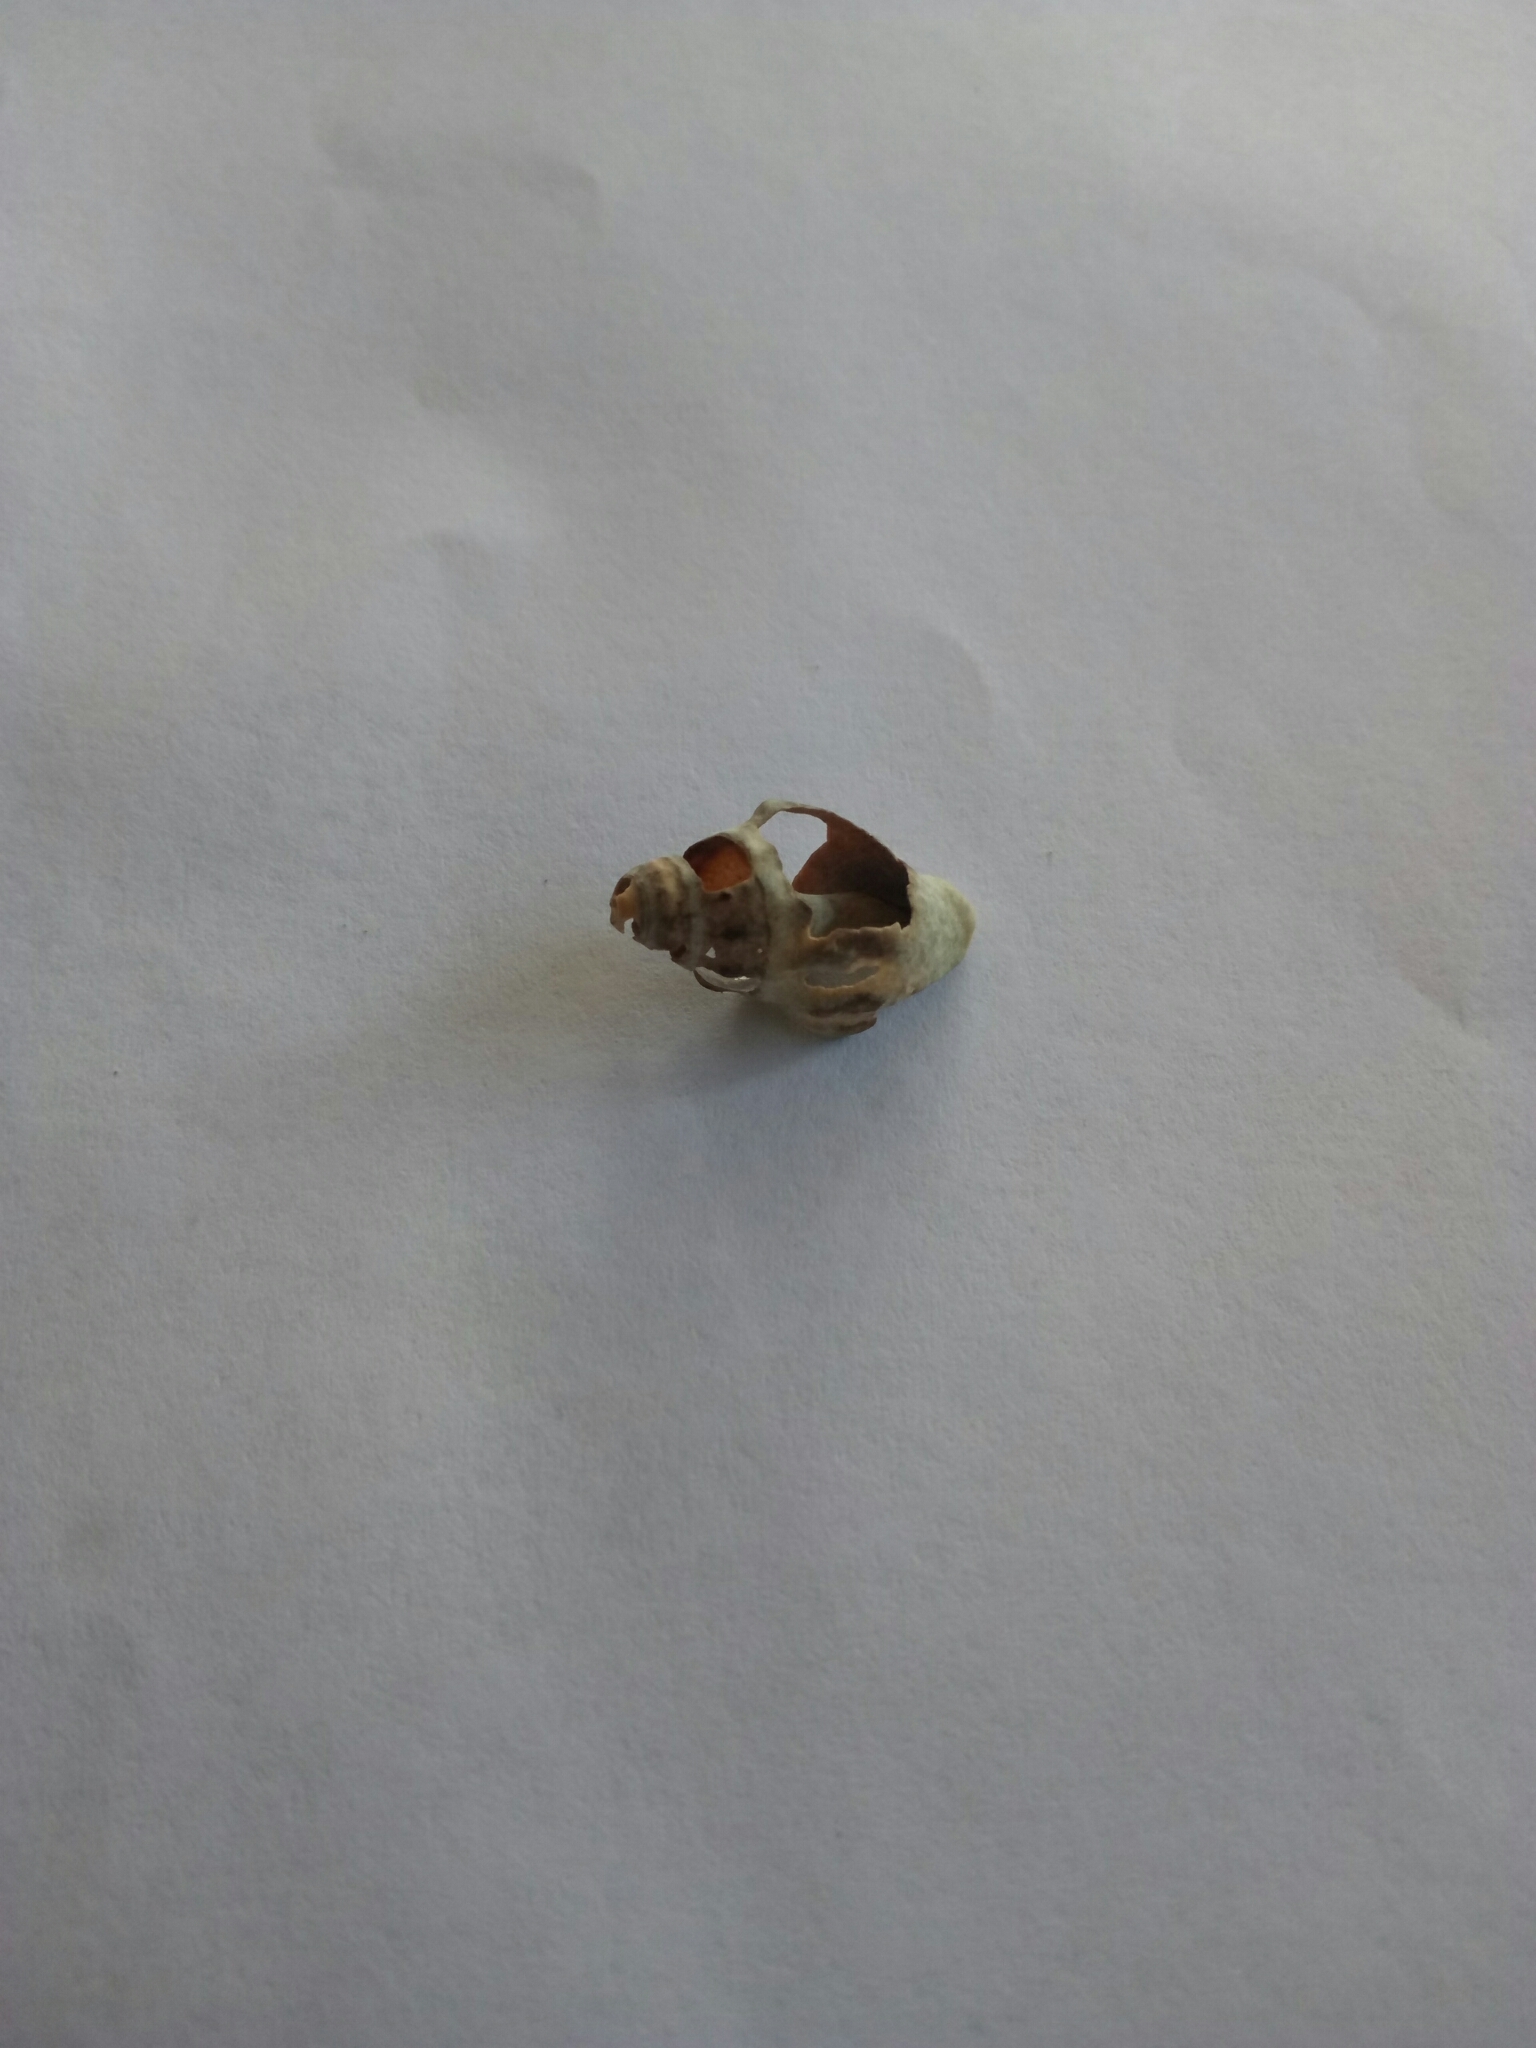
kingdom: Animalia
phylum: Mollusca
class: Gastropoda
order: Neogastropoda
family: Cominellidae
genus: Cominella
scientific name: Cominella glandiformis
